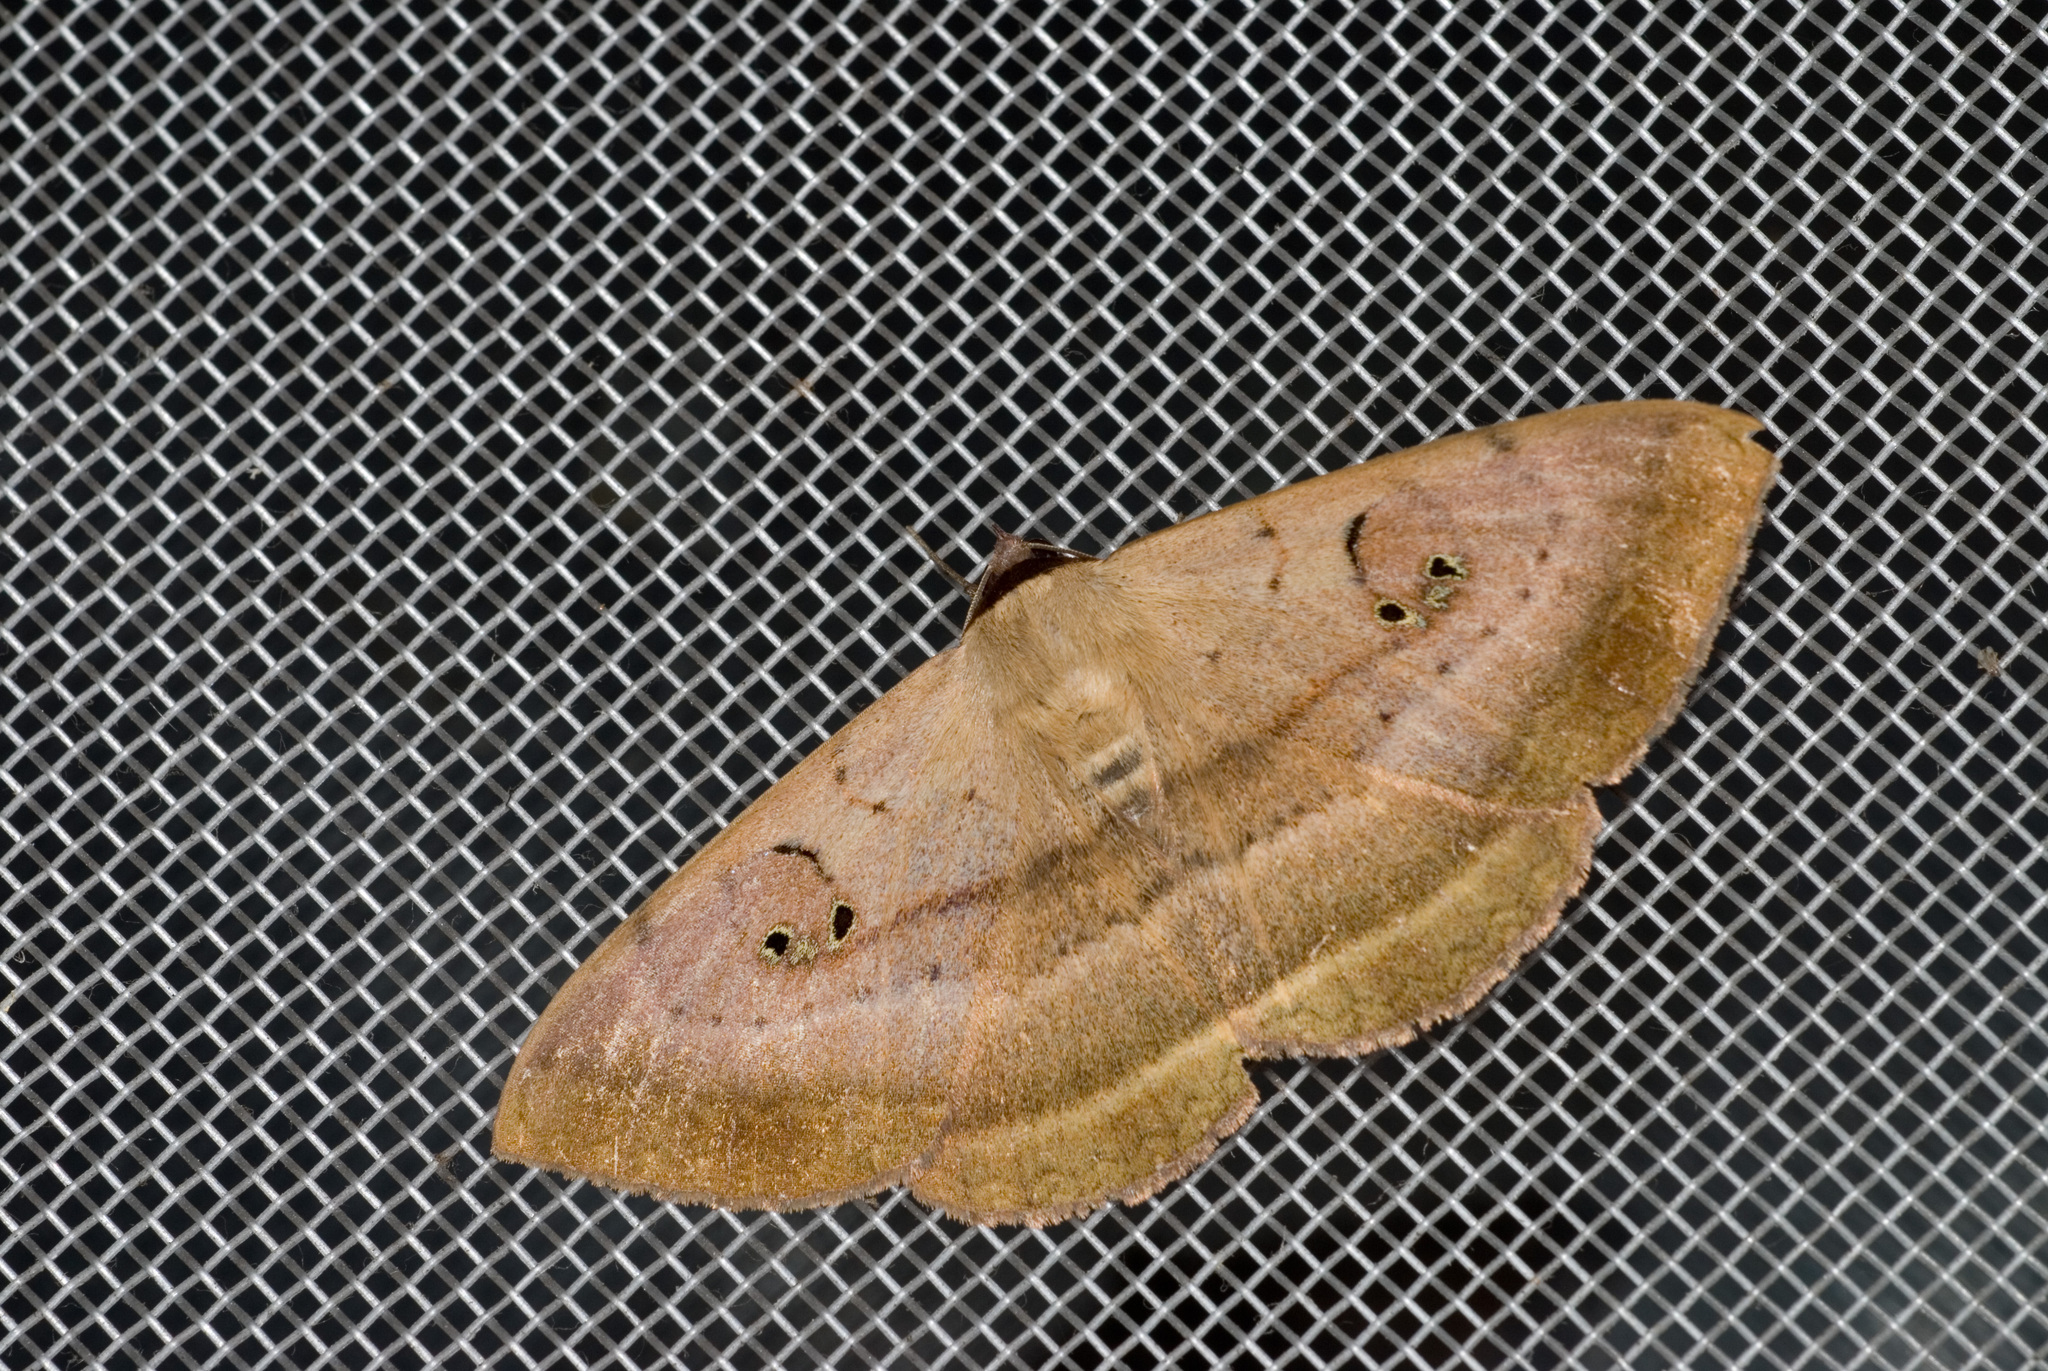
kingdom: Animalia
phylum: Arthropoda
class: Insecta
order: Lepidoptera
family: Erebidae
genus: Hypopyra
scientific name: Hypopyra vespertilio
